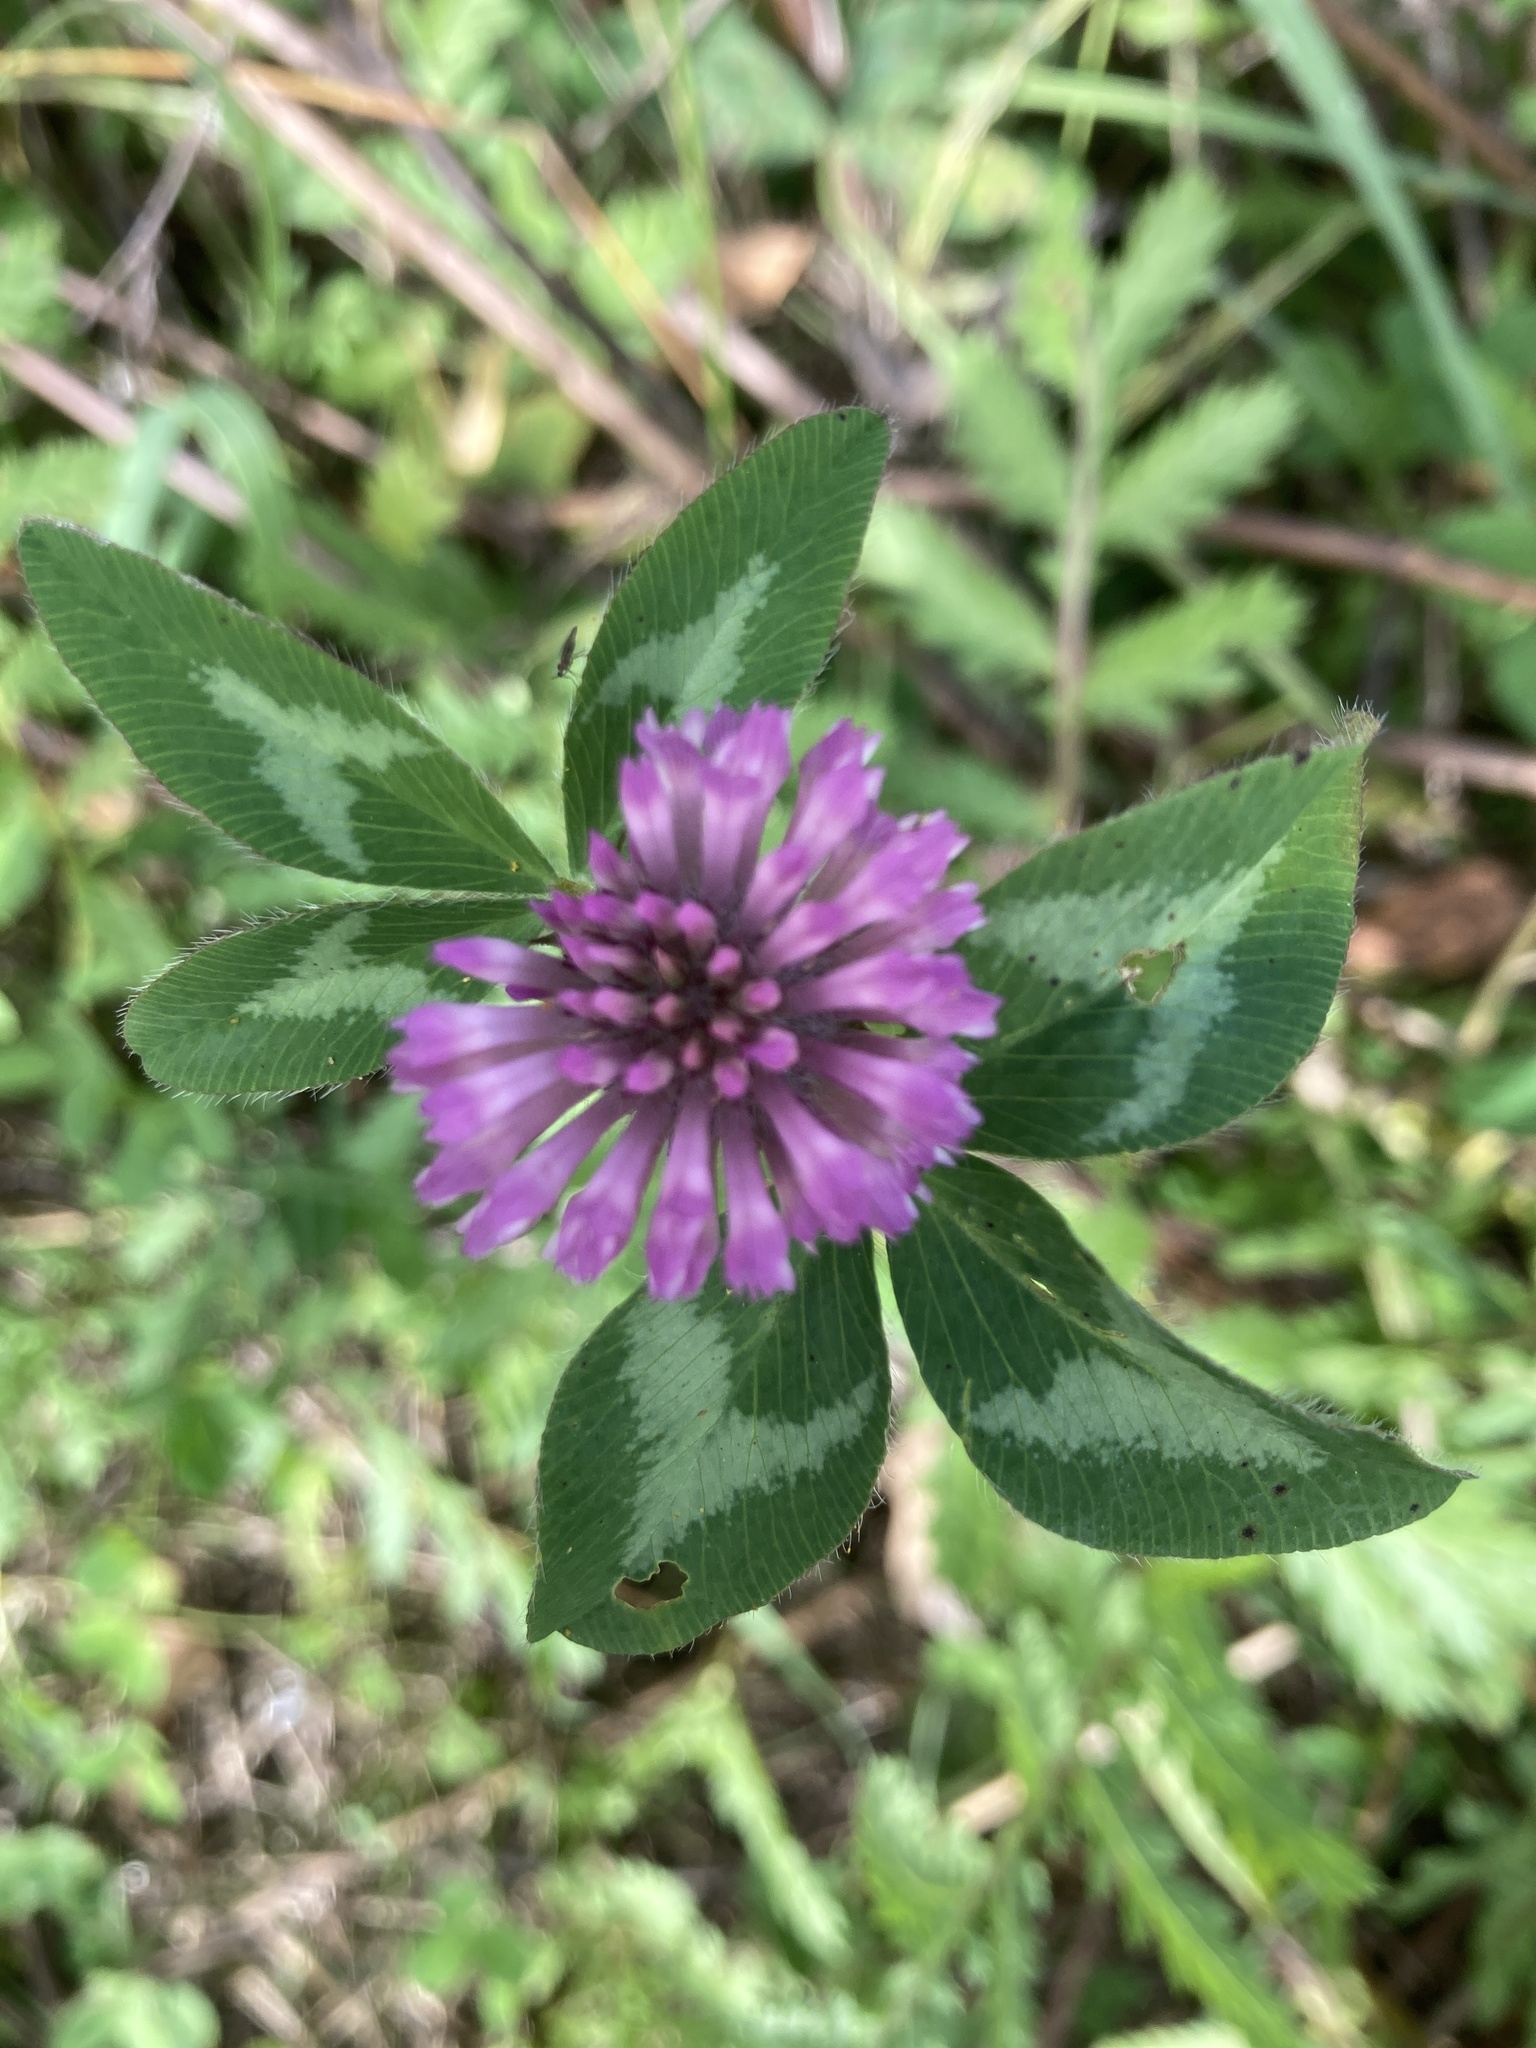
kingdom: Plantae
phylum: Tracheophyta
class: Magnoliopsida
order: Fabales
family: Fabaceae
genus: Trifolium
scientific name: Trifolium pratense
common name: Red clover
